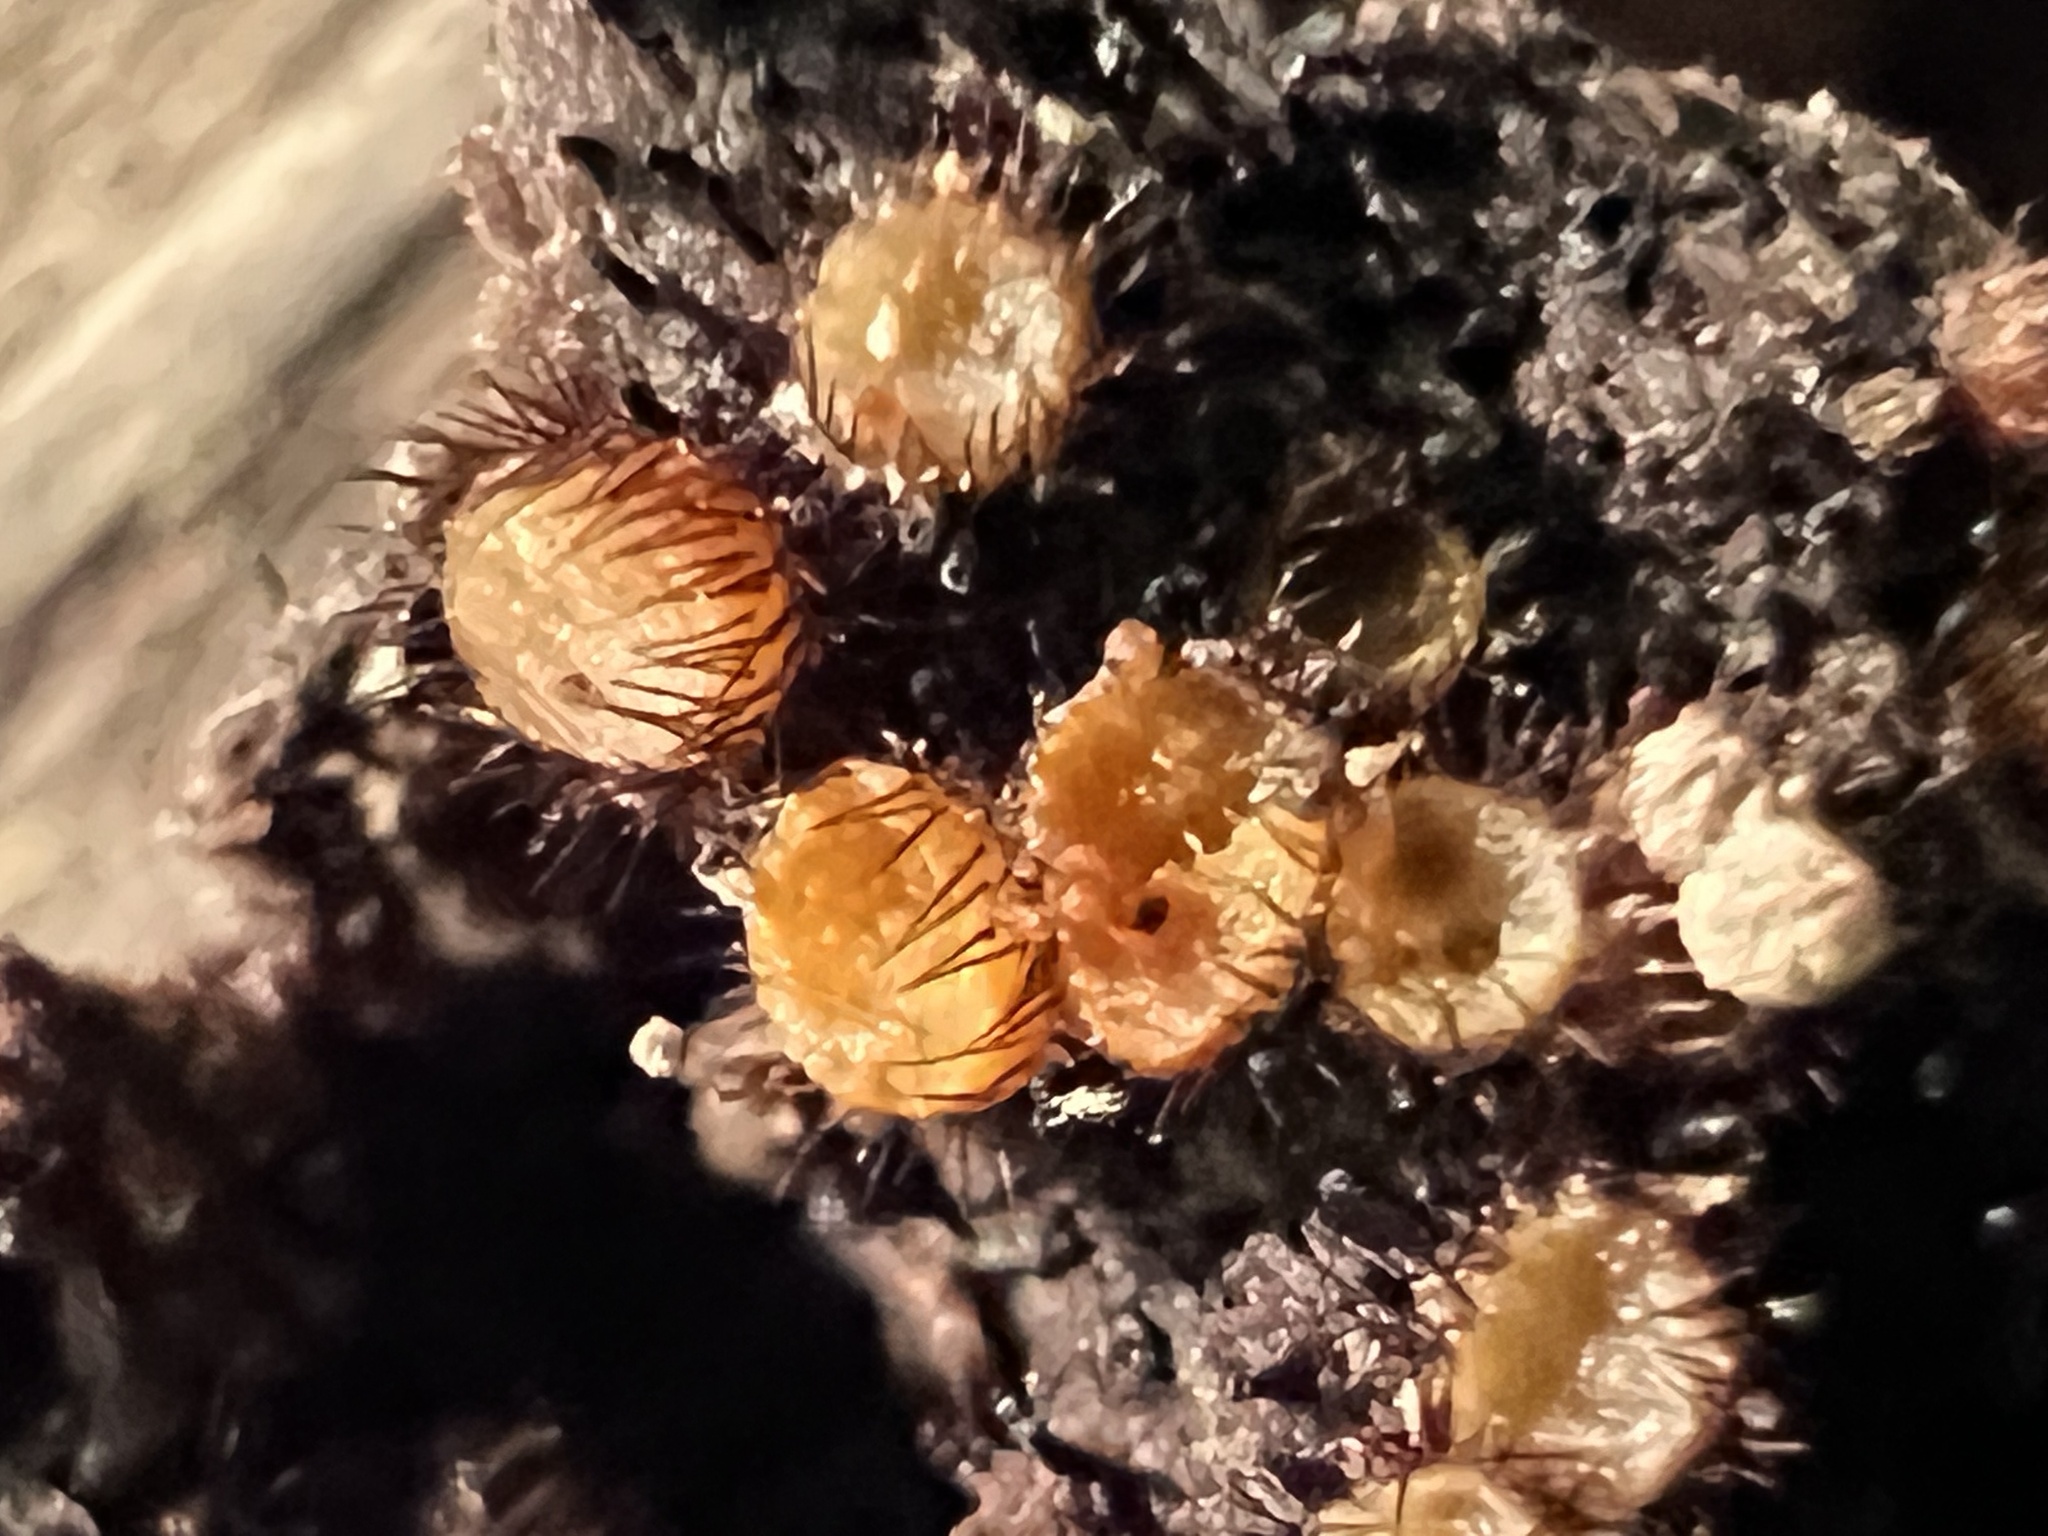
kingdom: Fungi
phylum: Ascomycota
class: Pezizomycetes
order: Pezizales
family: Pyronemataceae
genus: Scutellinia
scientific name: Scutellinia setosa
